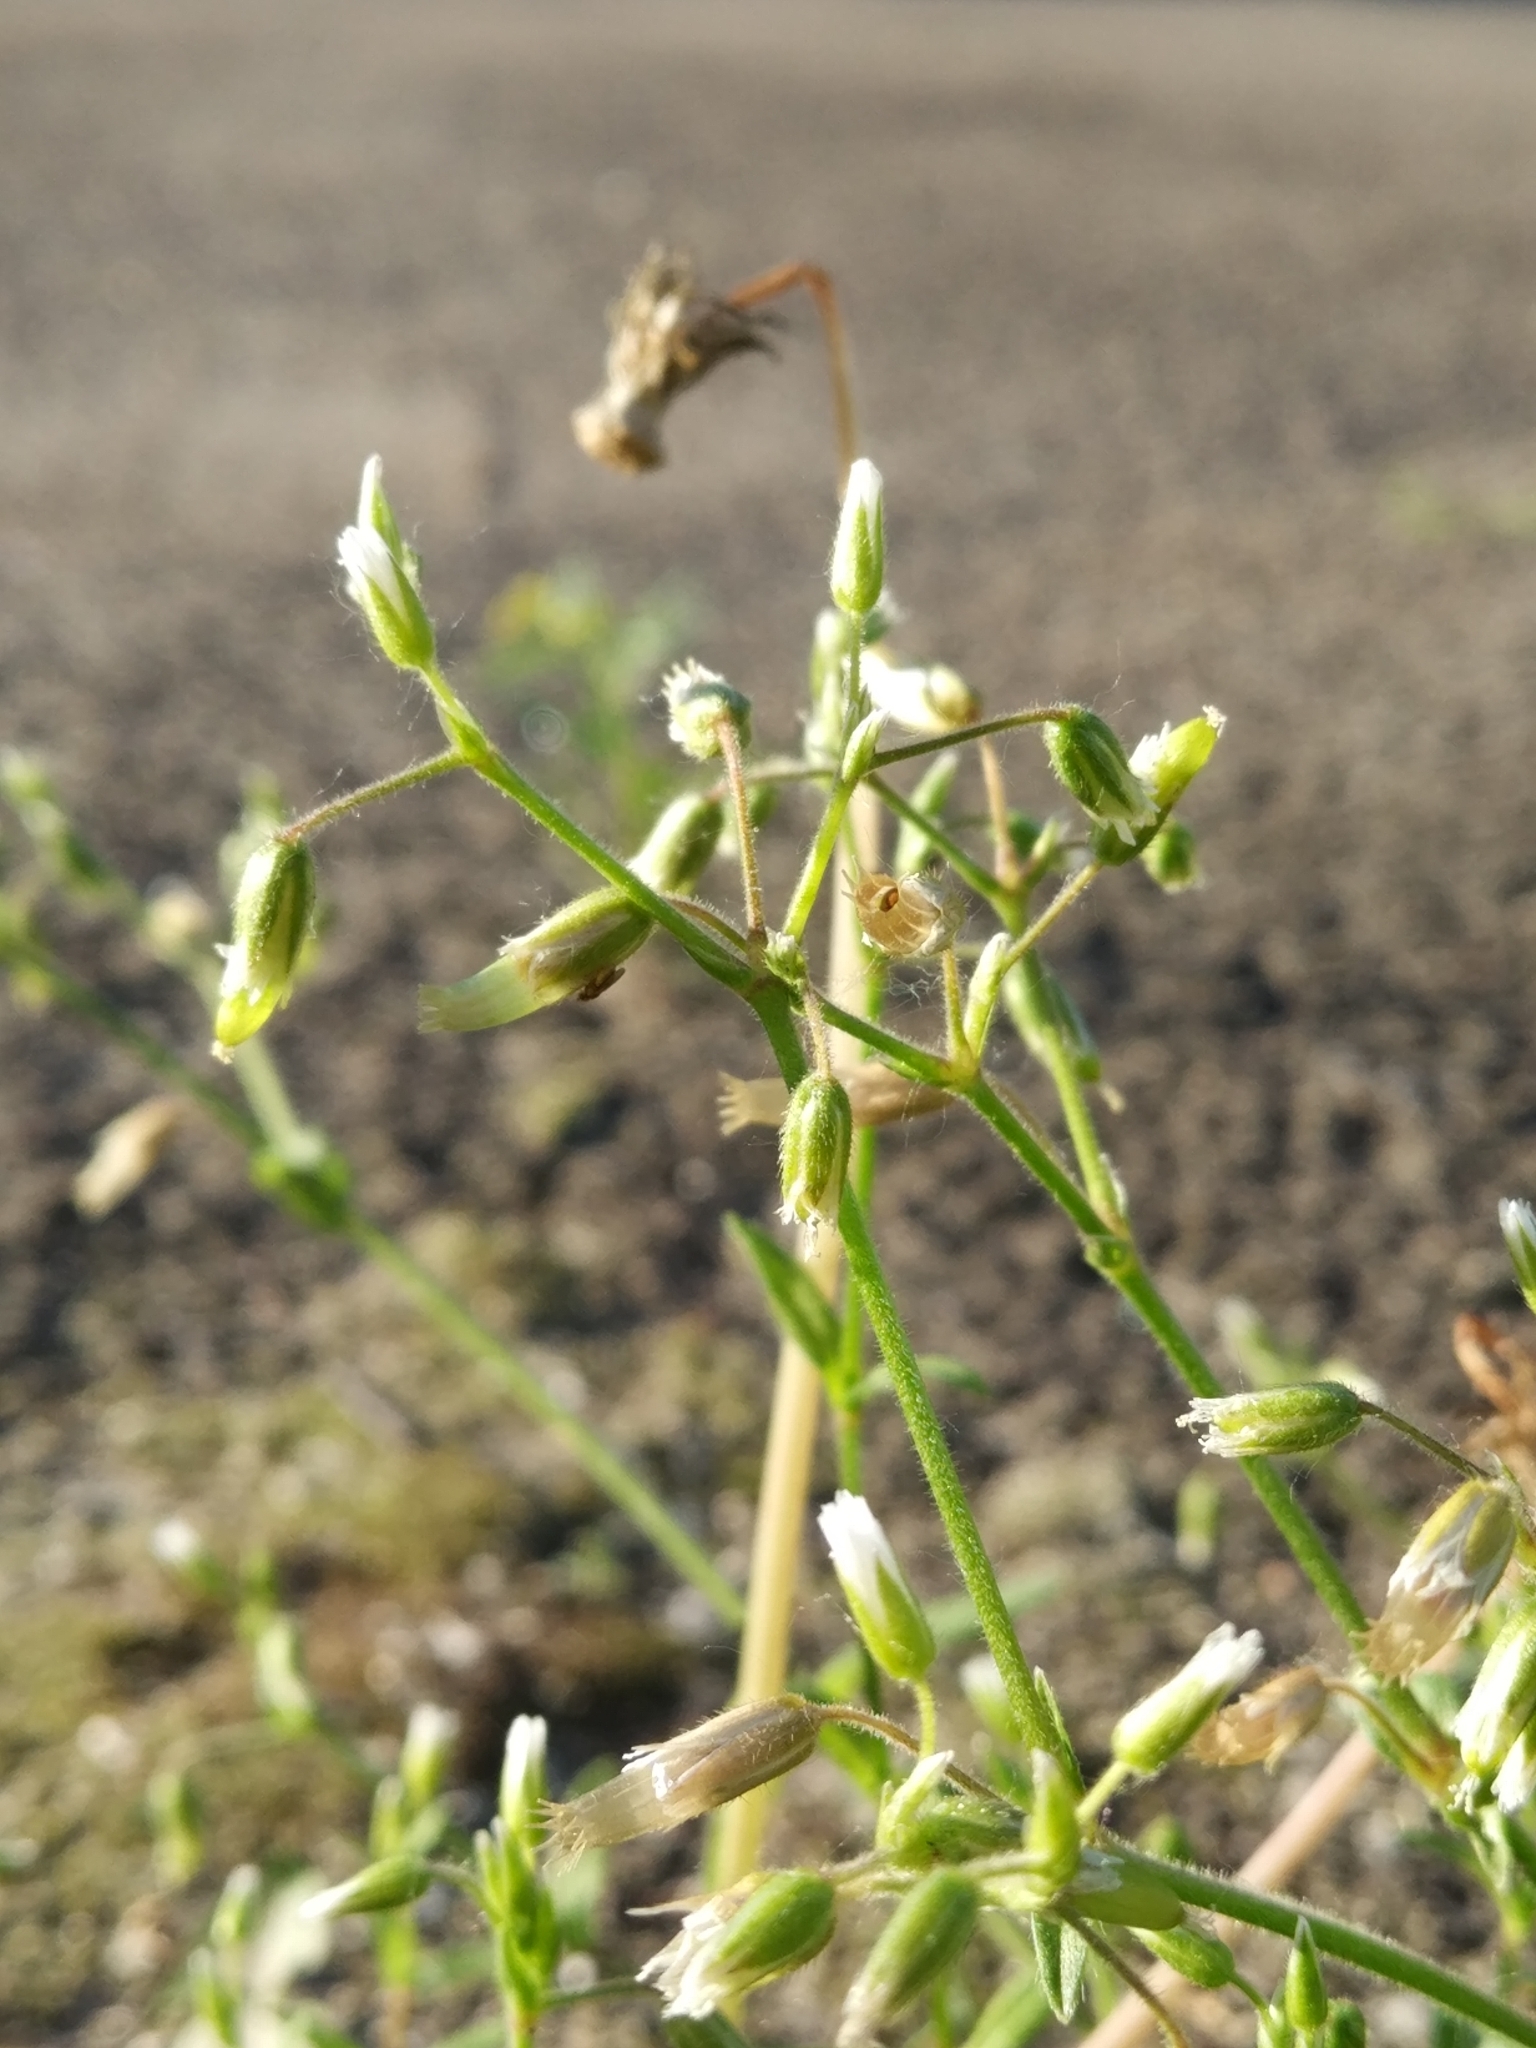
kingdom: Plantae
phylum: Tracheophyta
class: Magnoliopsida
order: Caryophyllales
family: Caryophyllaceae
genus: Cerastium
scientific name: Cerastium holosteoides
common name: Big chickweed
